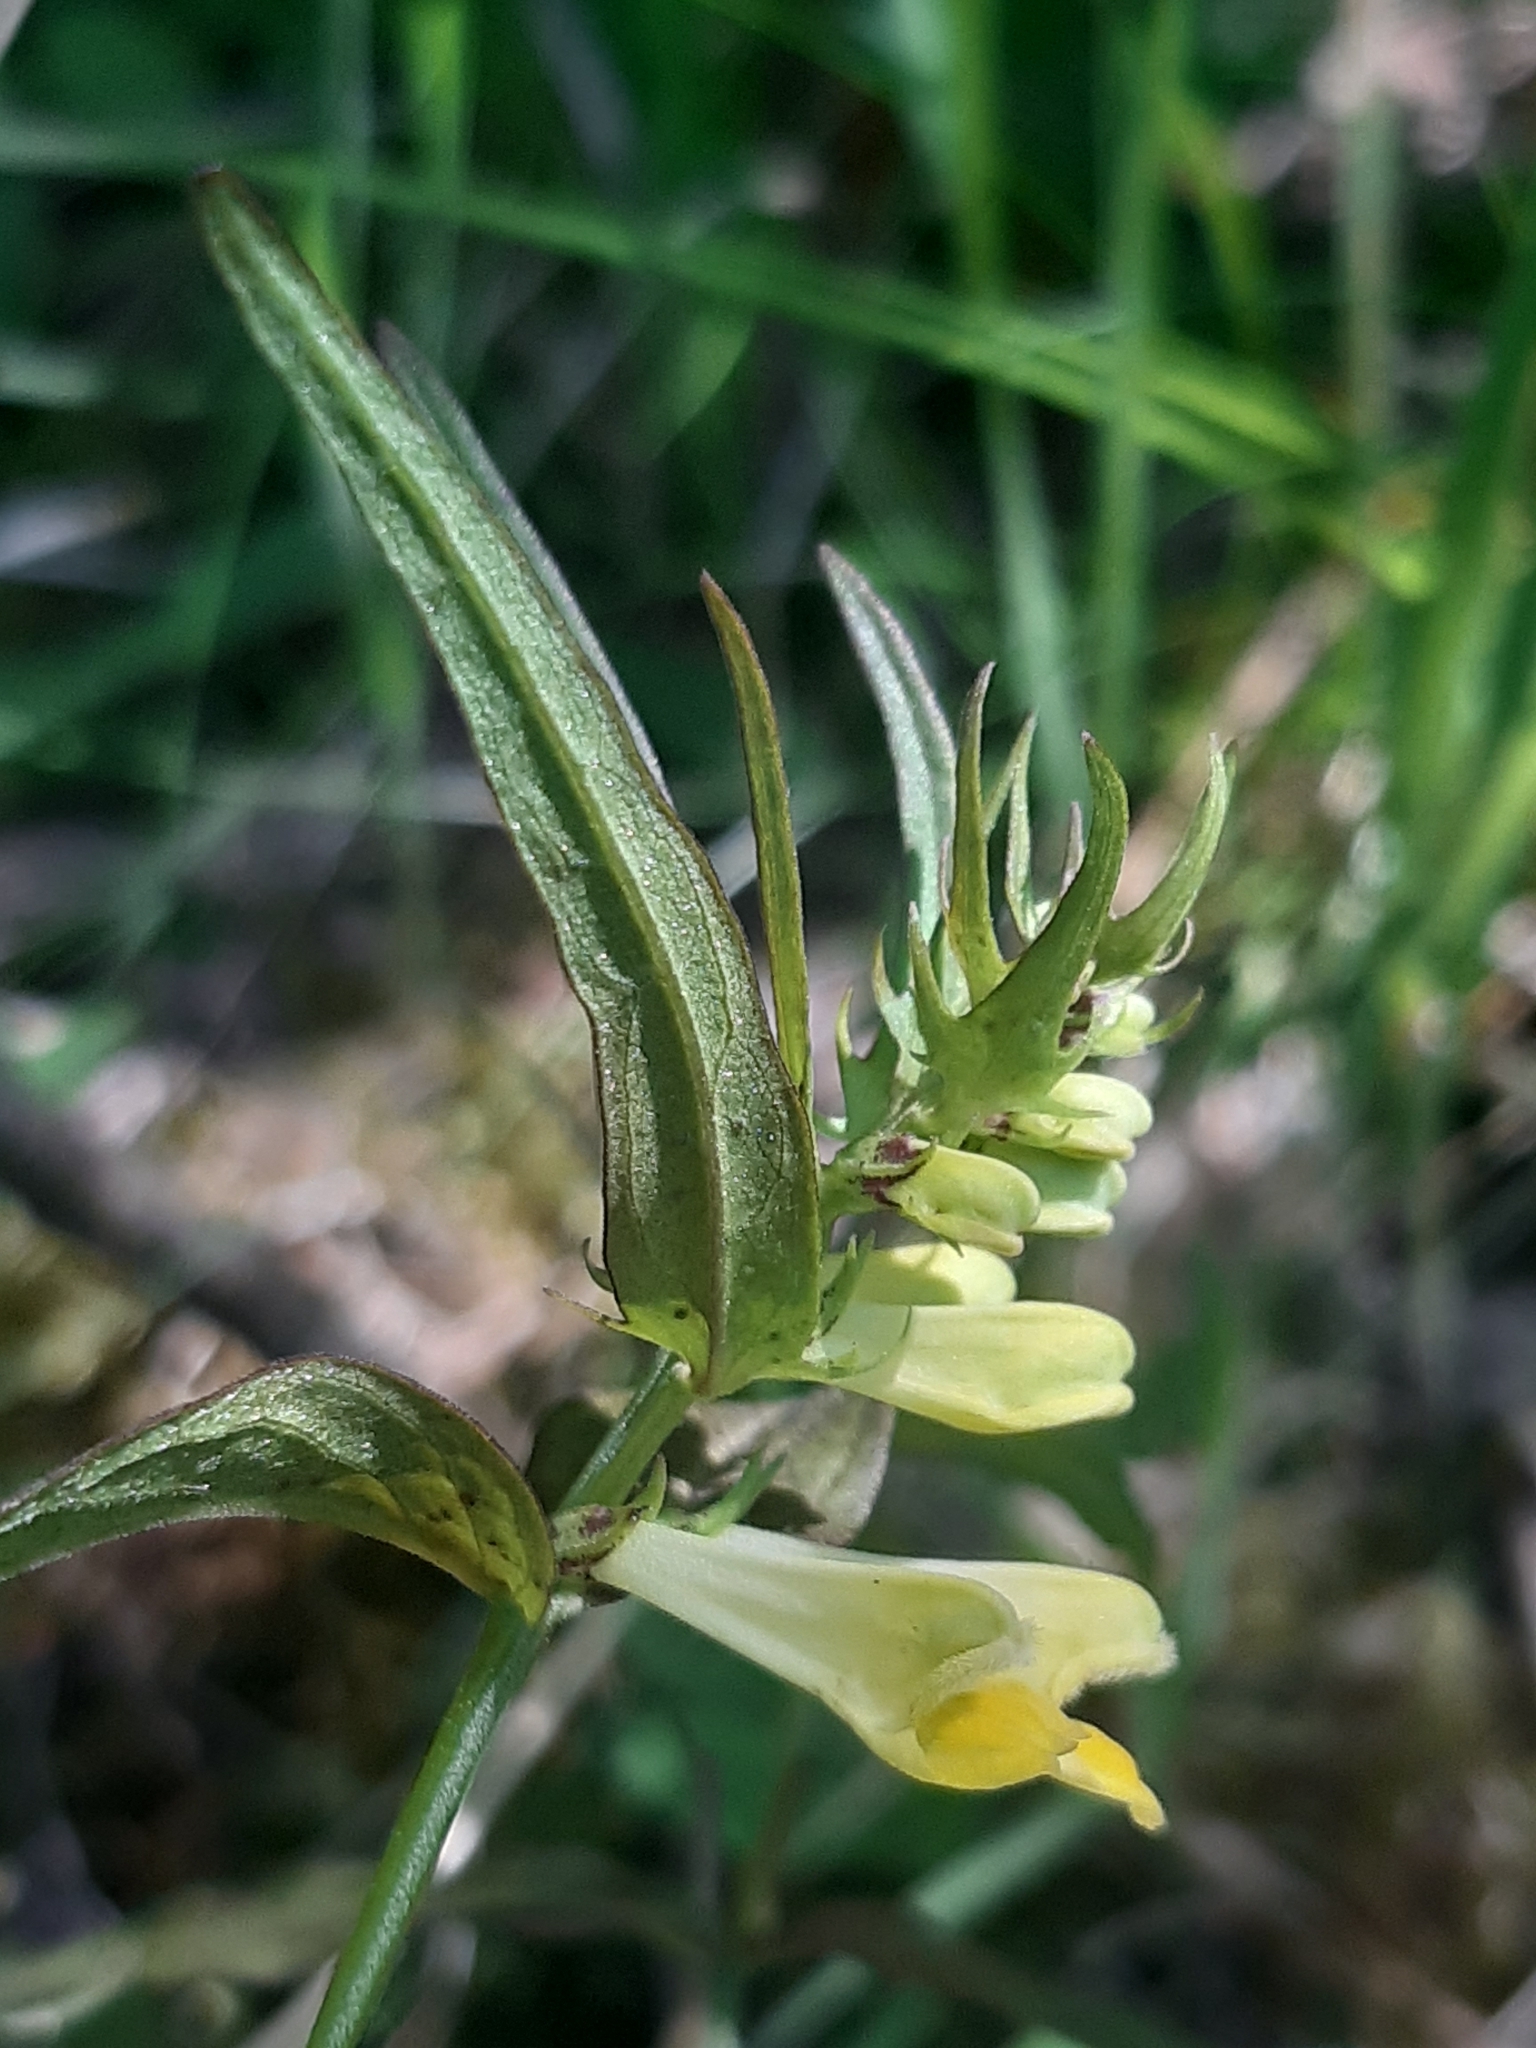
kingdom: Plantae
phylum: Tracheophyta
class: Magnoliopsida
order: Lamiales
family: Orobanchaceae
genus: Melampyrum
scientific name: Melampyrum pratense
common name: Common cow-wheat
